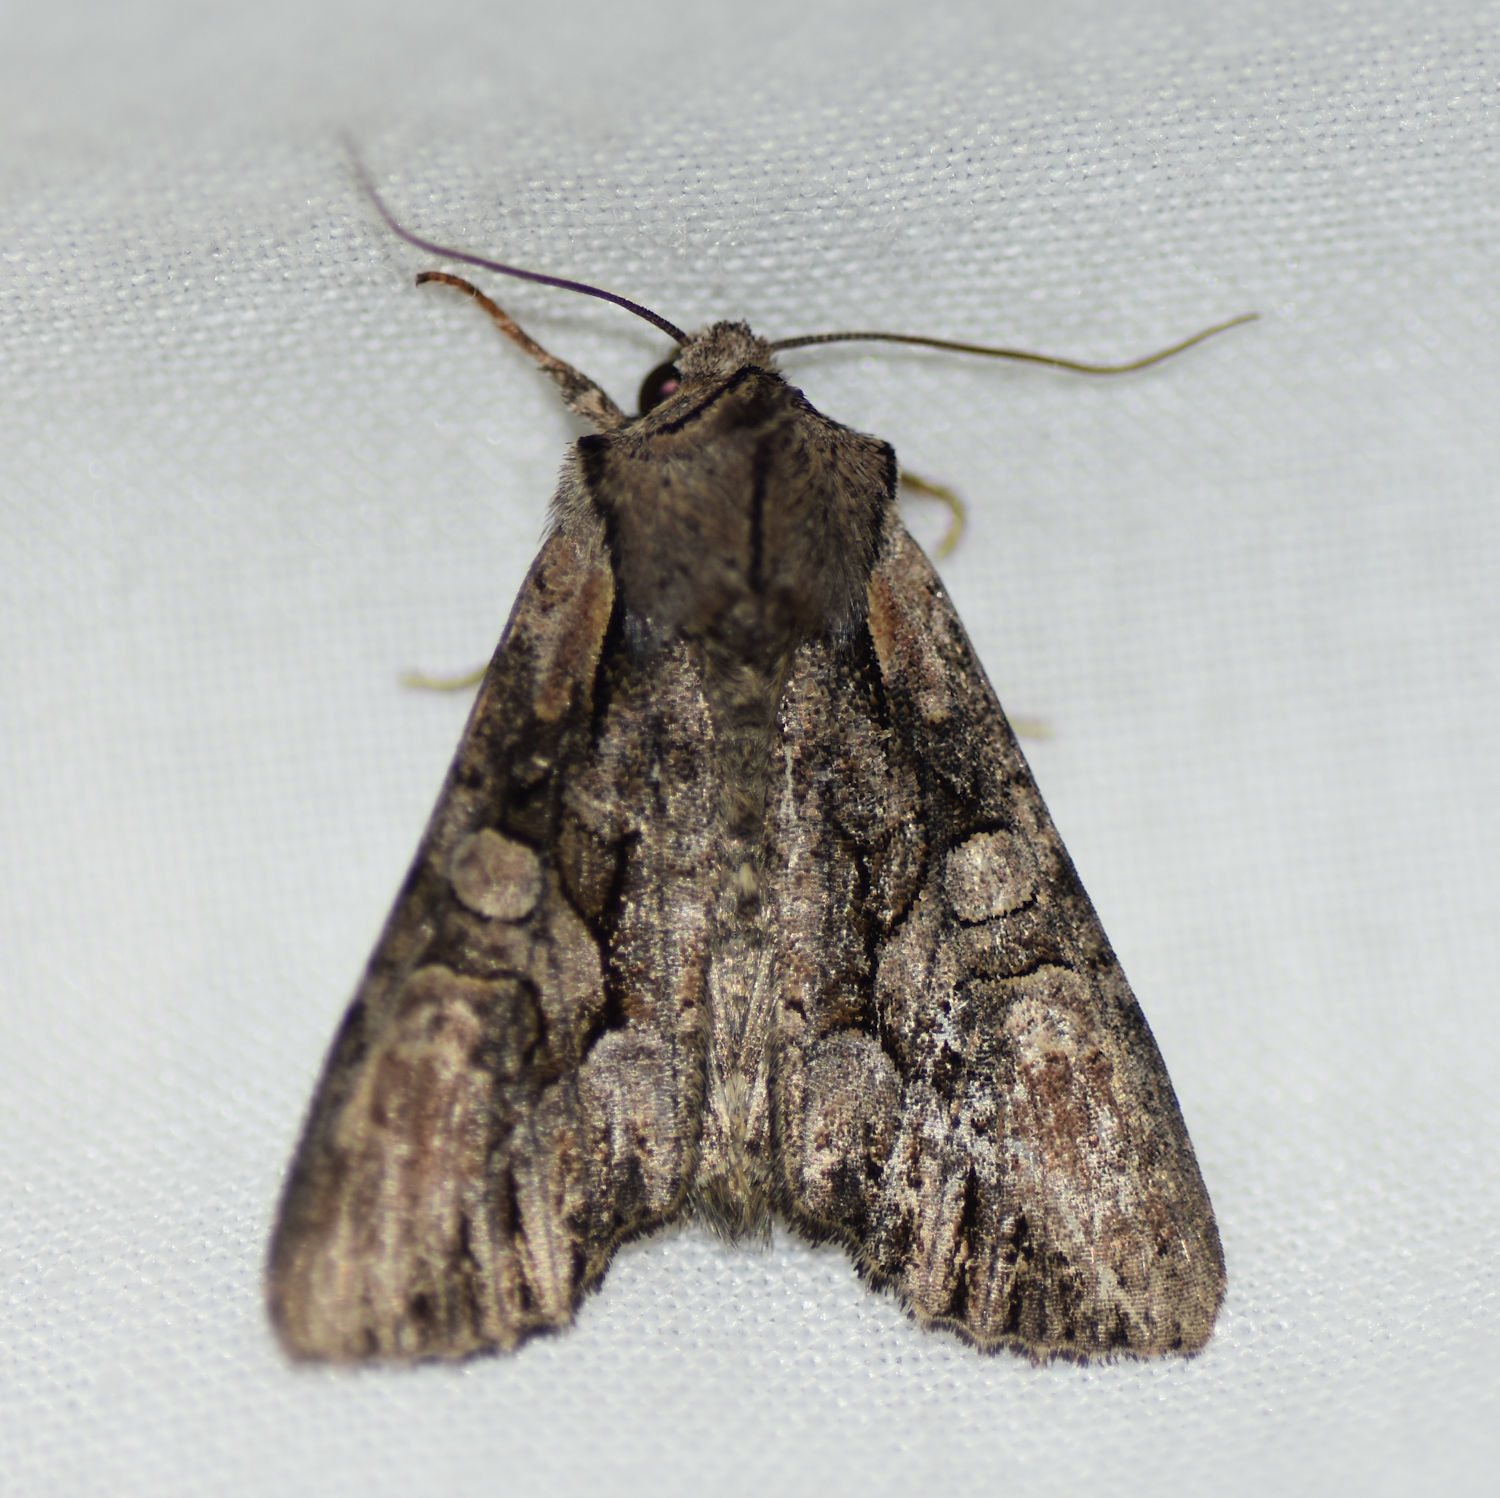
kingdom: Animalia
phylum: Arthropoda
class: Insecta
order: Lepidoptera
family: Noctuidae
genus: Lacanobia
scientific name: Lacanobia subjuncta
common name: Speckled cutworm moth
